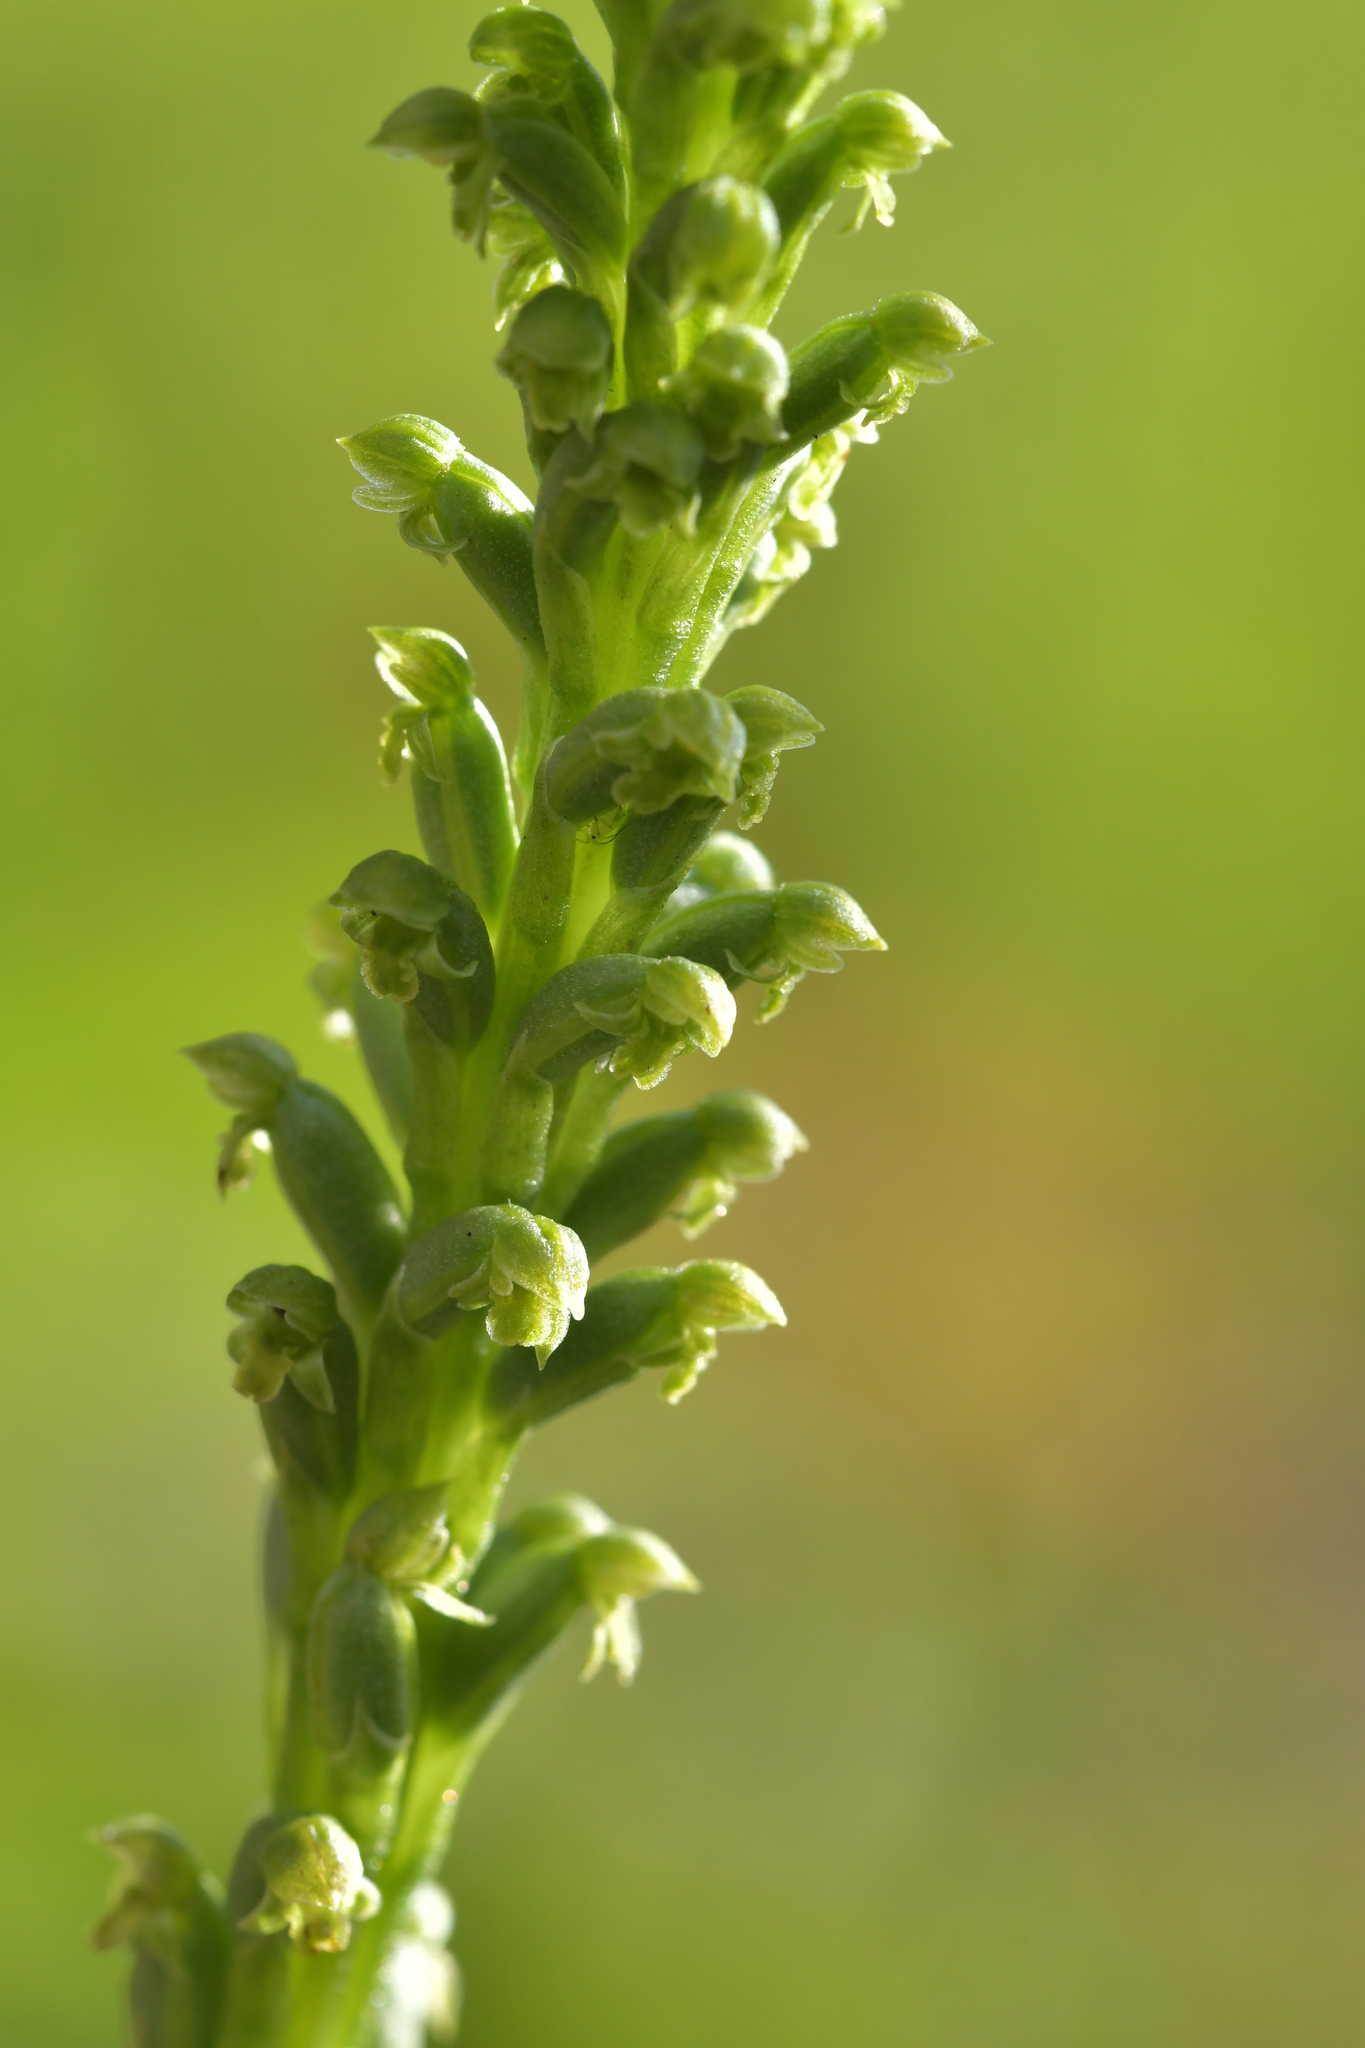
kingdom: Plantae
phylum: Tracheophyta
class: Liliopsida
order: Asparagales
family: Orchidaceae
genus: Microtis
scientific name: Microtis unifolia
